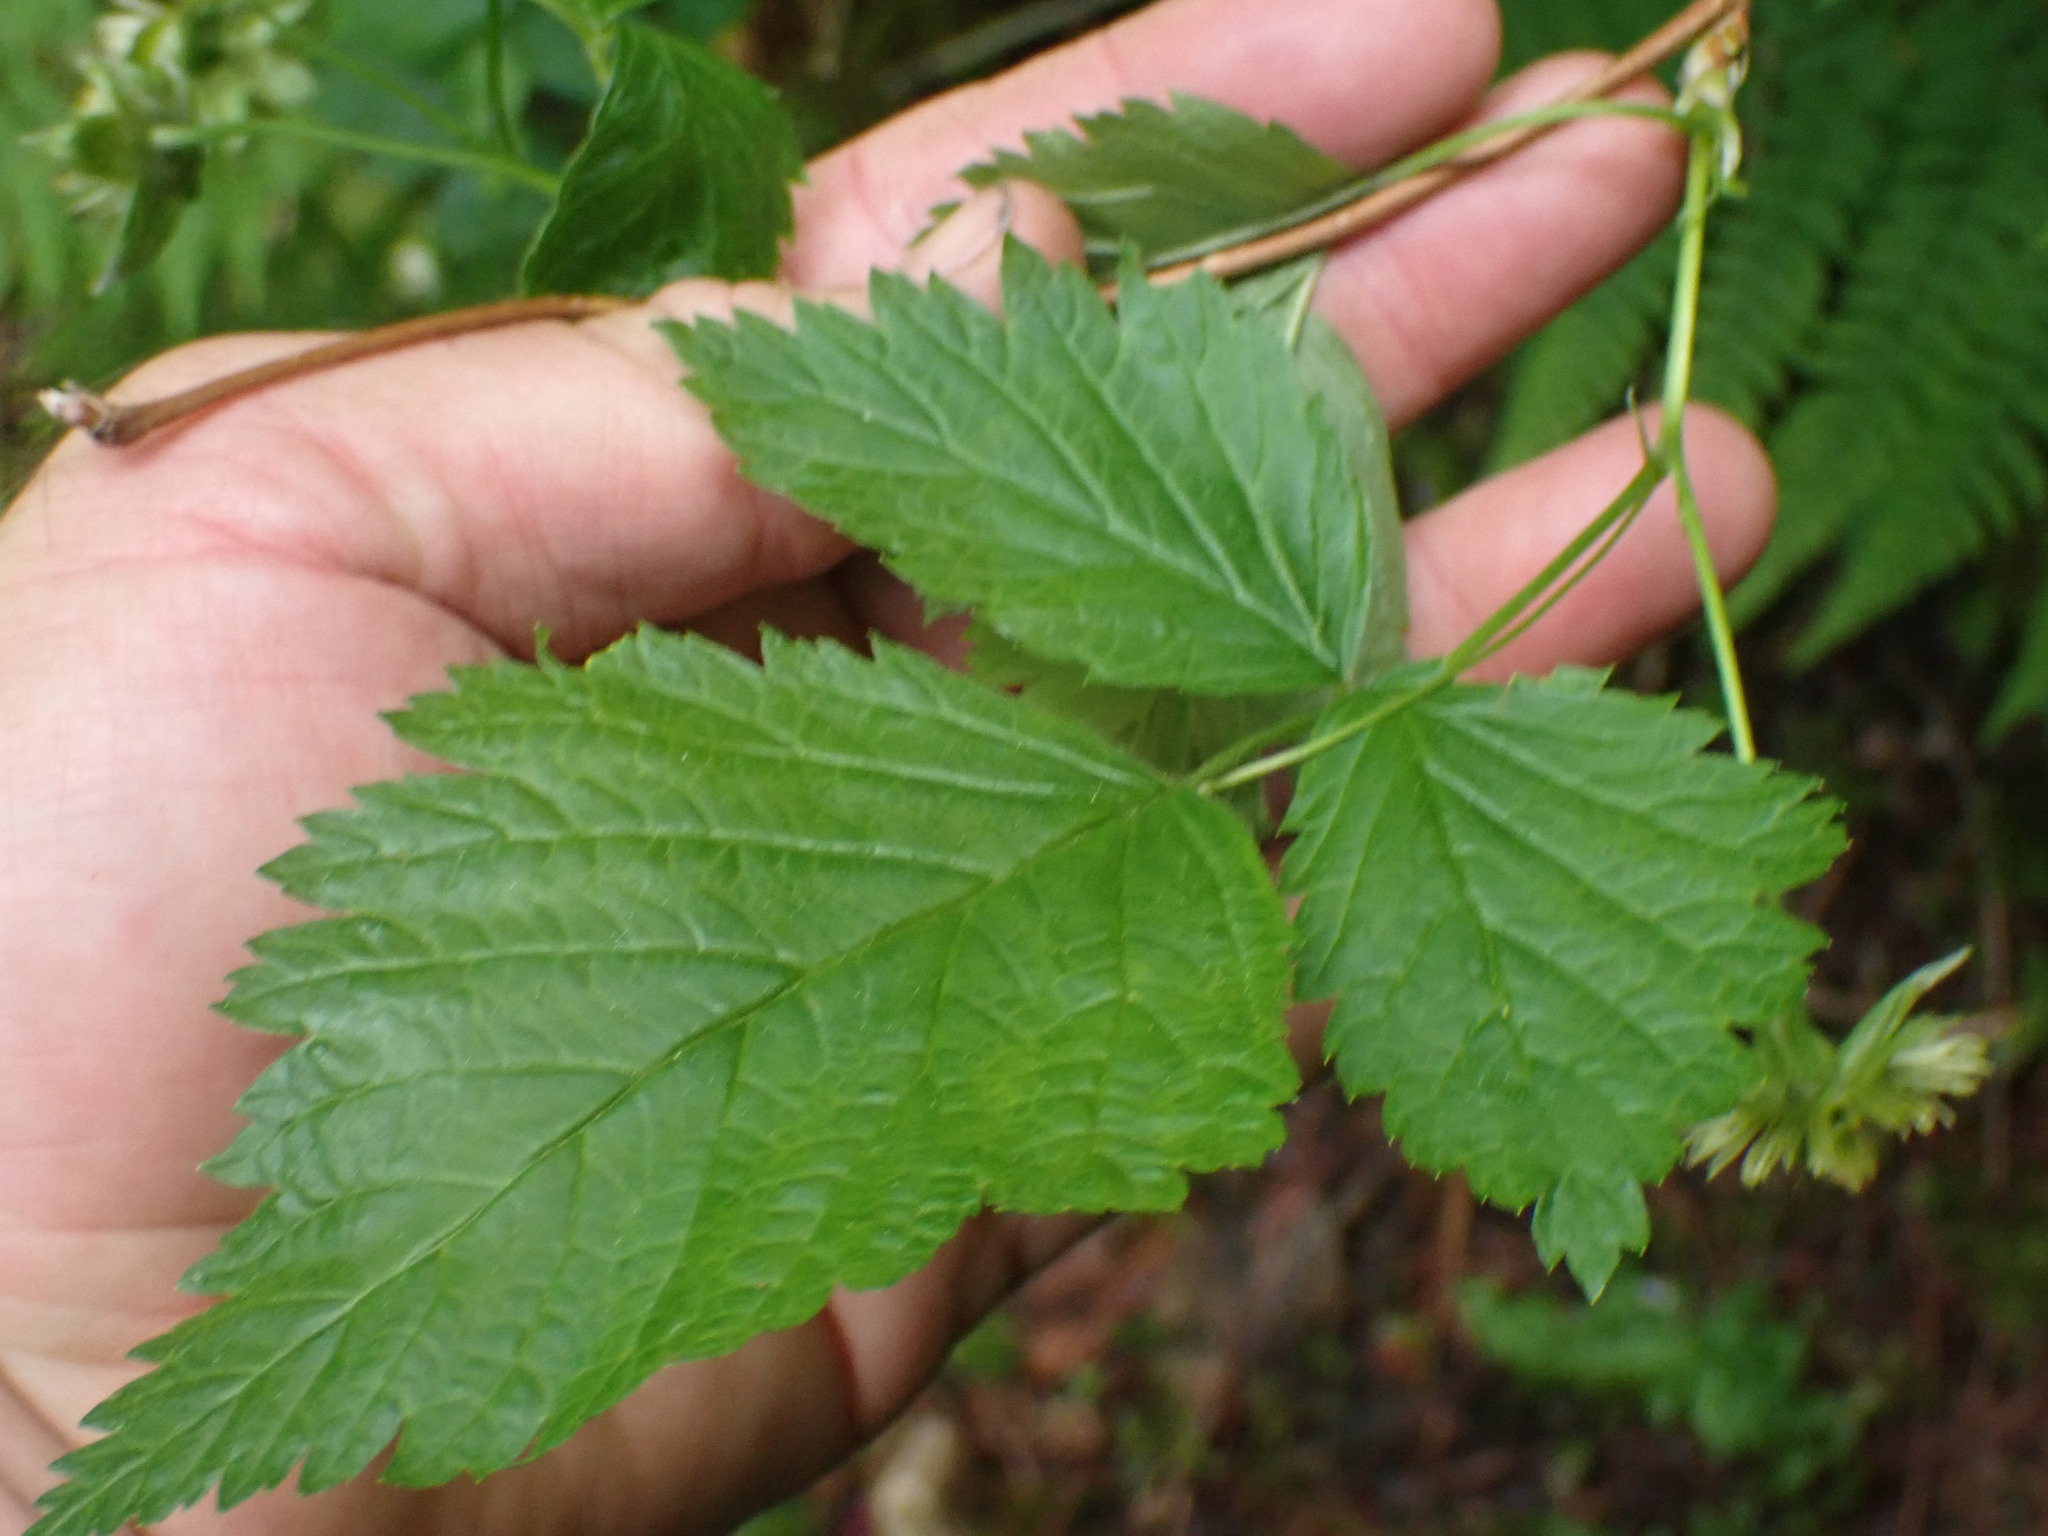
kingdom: Plantae
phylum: Tracheophyta
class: Magnoliopsida
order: Rosales
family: Rosaceae
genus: Rubus
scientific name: Rubus spectabilis
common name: Salmonberry
